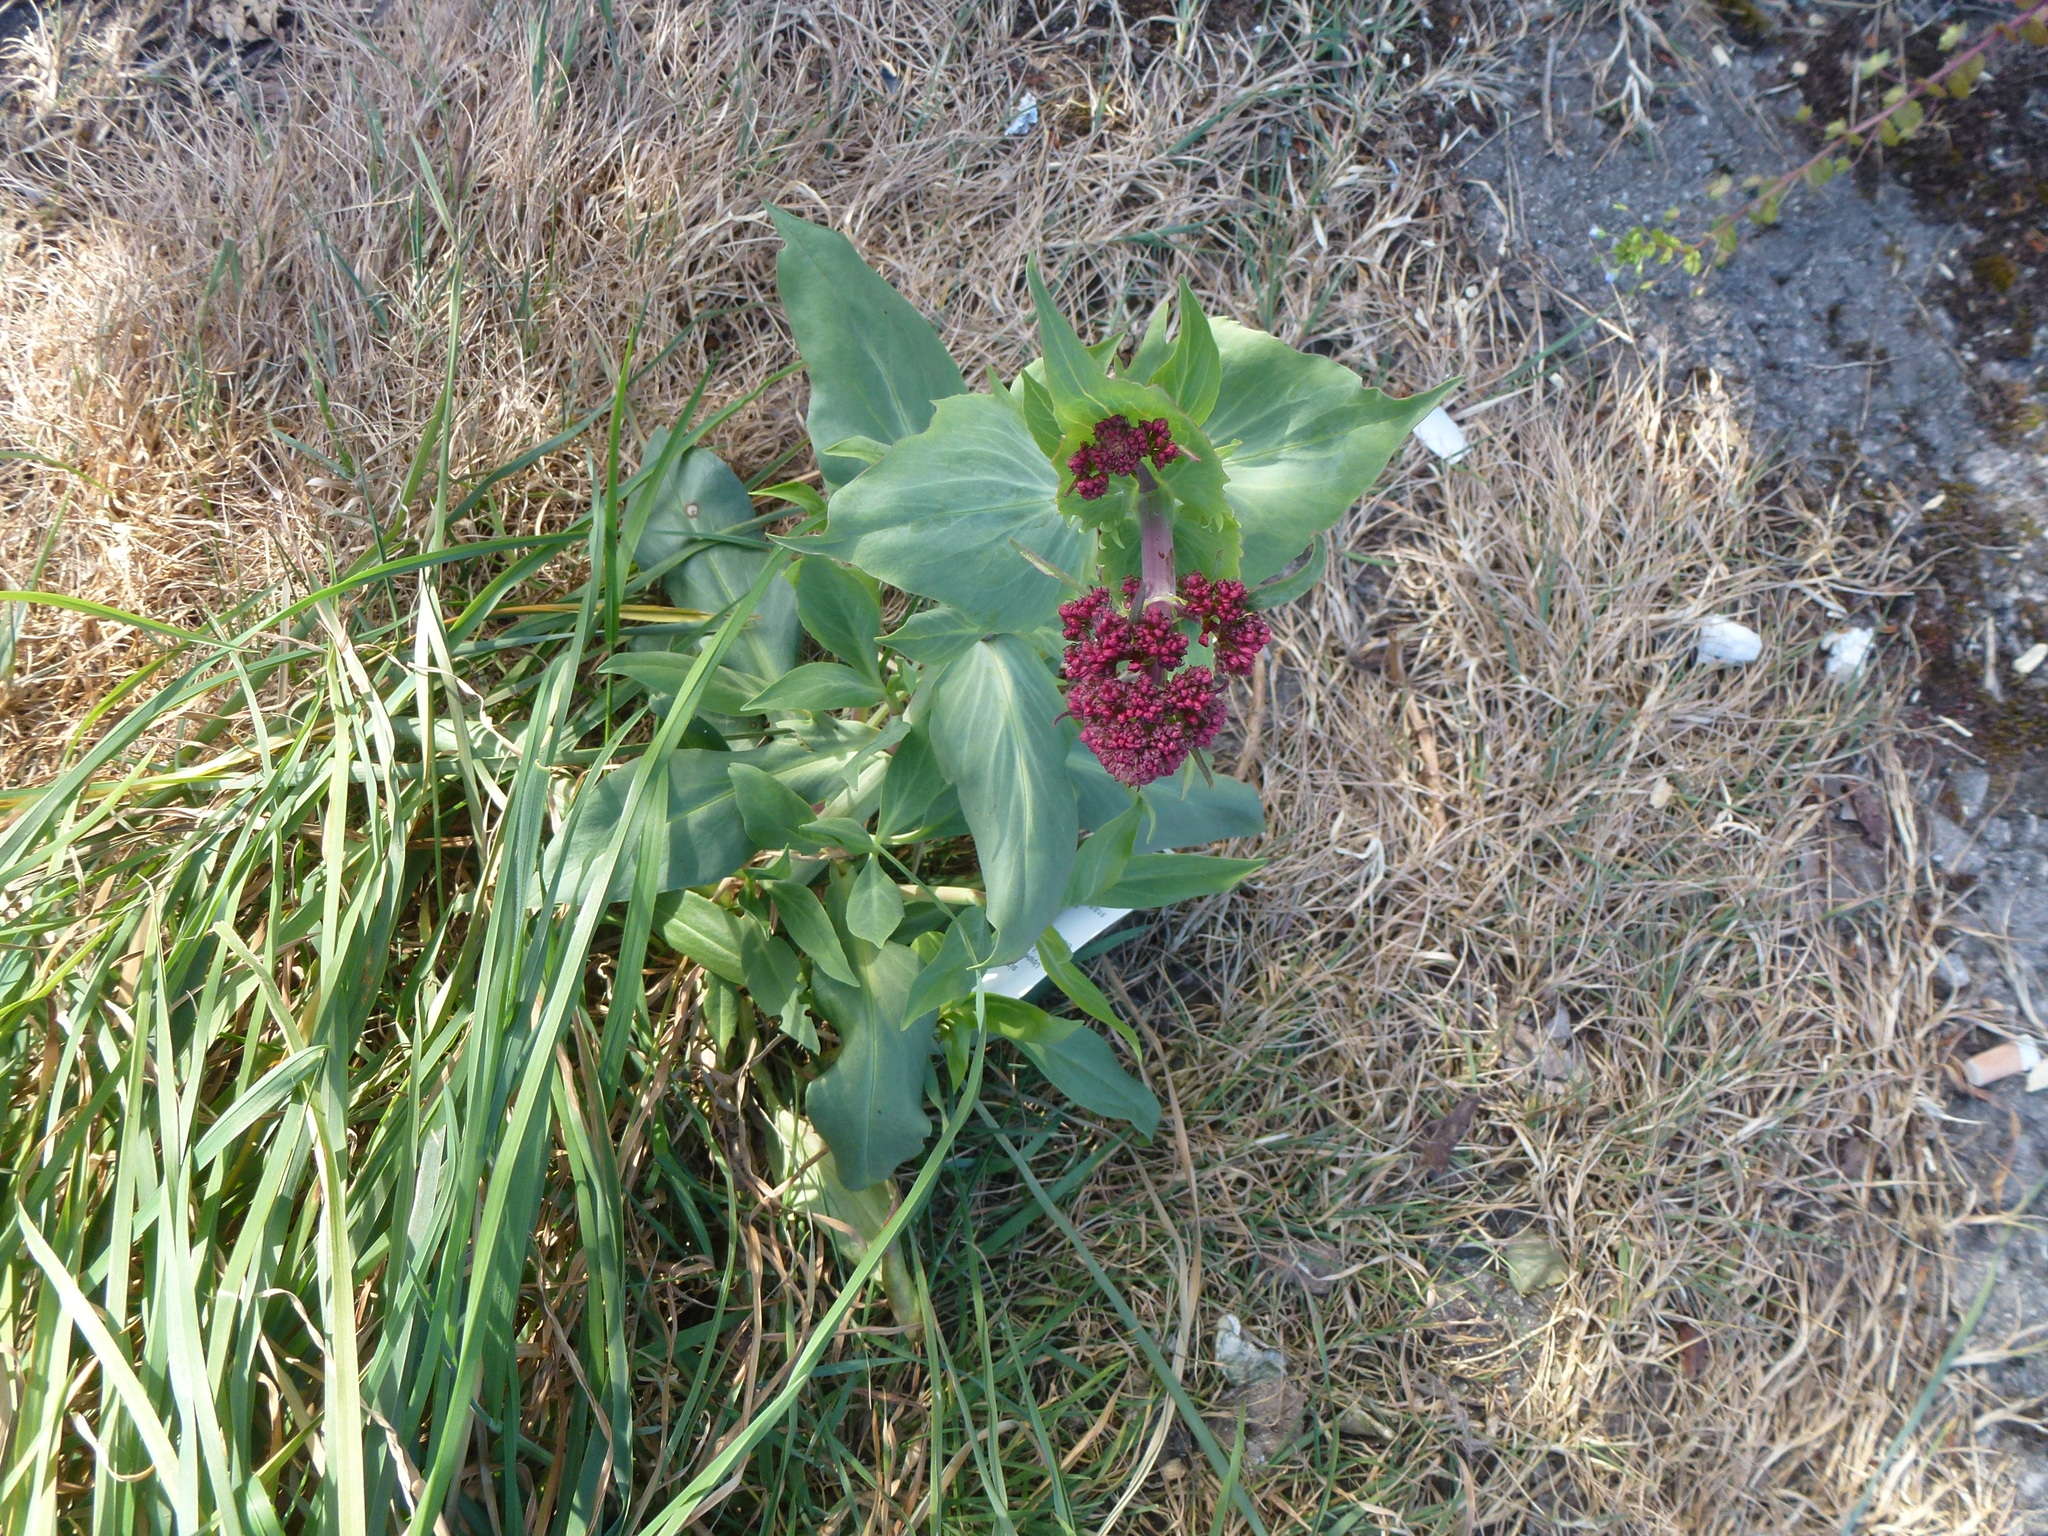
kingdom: Plantae
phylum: Tracheophyta
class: Magnoliopsida
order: Dipsacales
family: Caprifoliaceae
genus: Centranthus
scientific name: Centranthus ruber
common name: Red valerian
